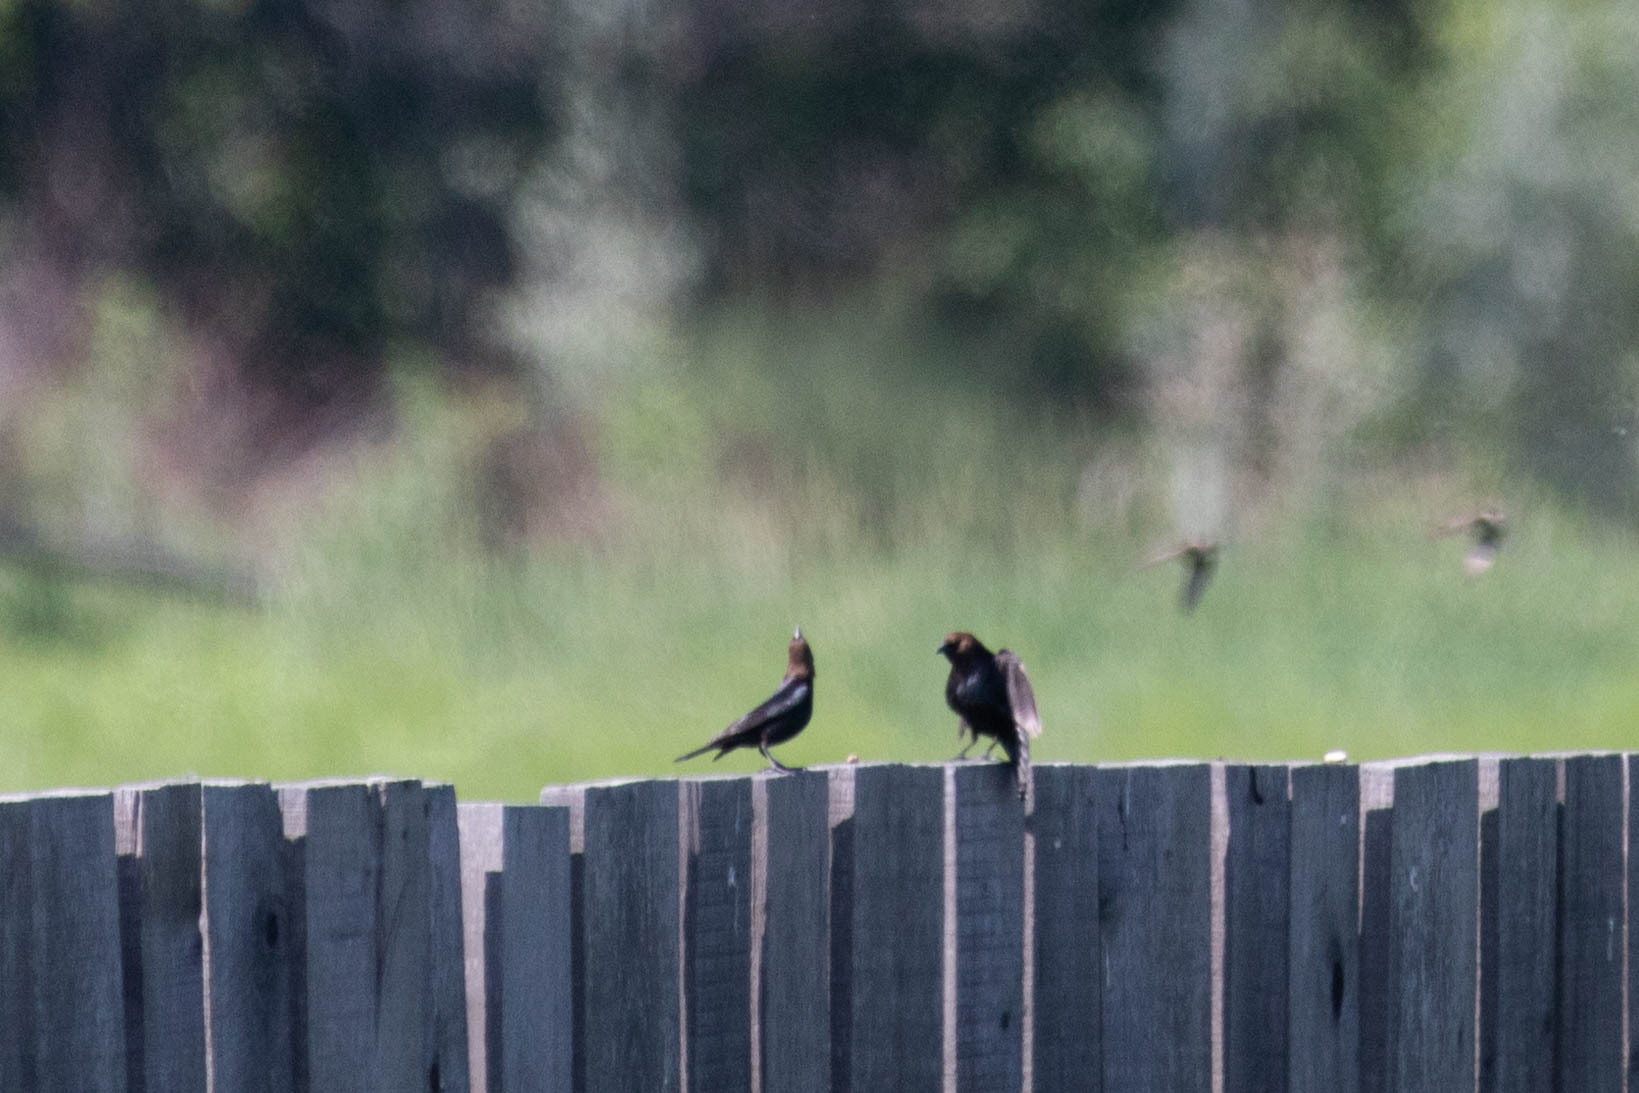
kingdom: Animalia
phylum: Chordata
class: Aves
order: Passeriformes
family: Icteridae
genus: Molothrus
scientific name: Molothrus ater
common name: Brown-headed cowbird
